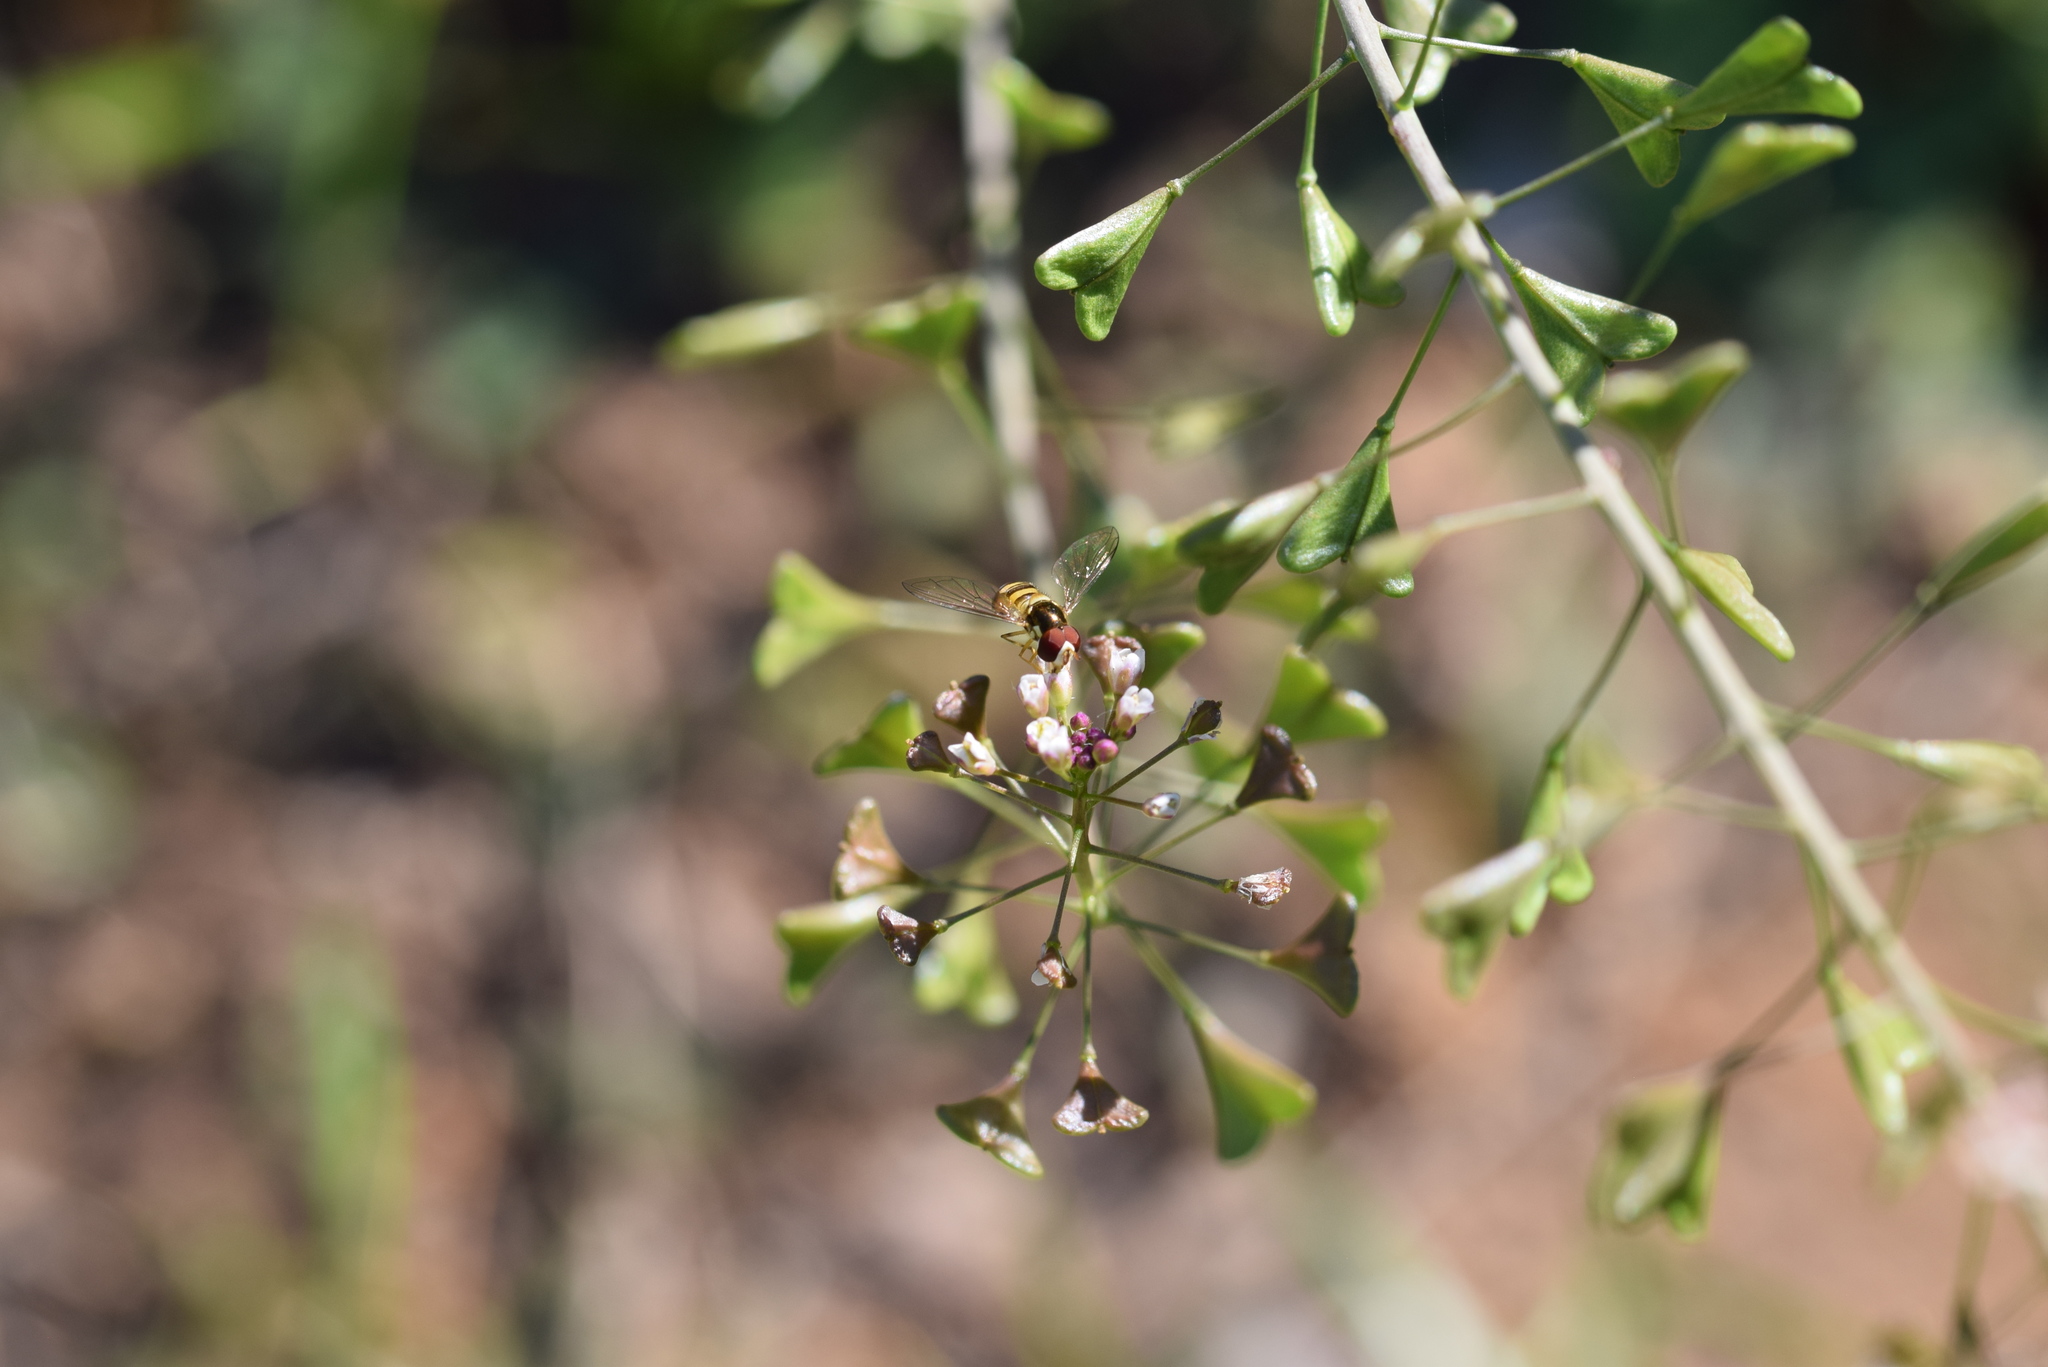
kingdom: Animalia
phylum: Arthropoda
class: Insecta
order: Diptera
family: Syrphidae
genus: Allograpta
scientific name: Allograpta obliqua
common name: Common oblique syrphid
